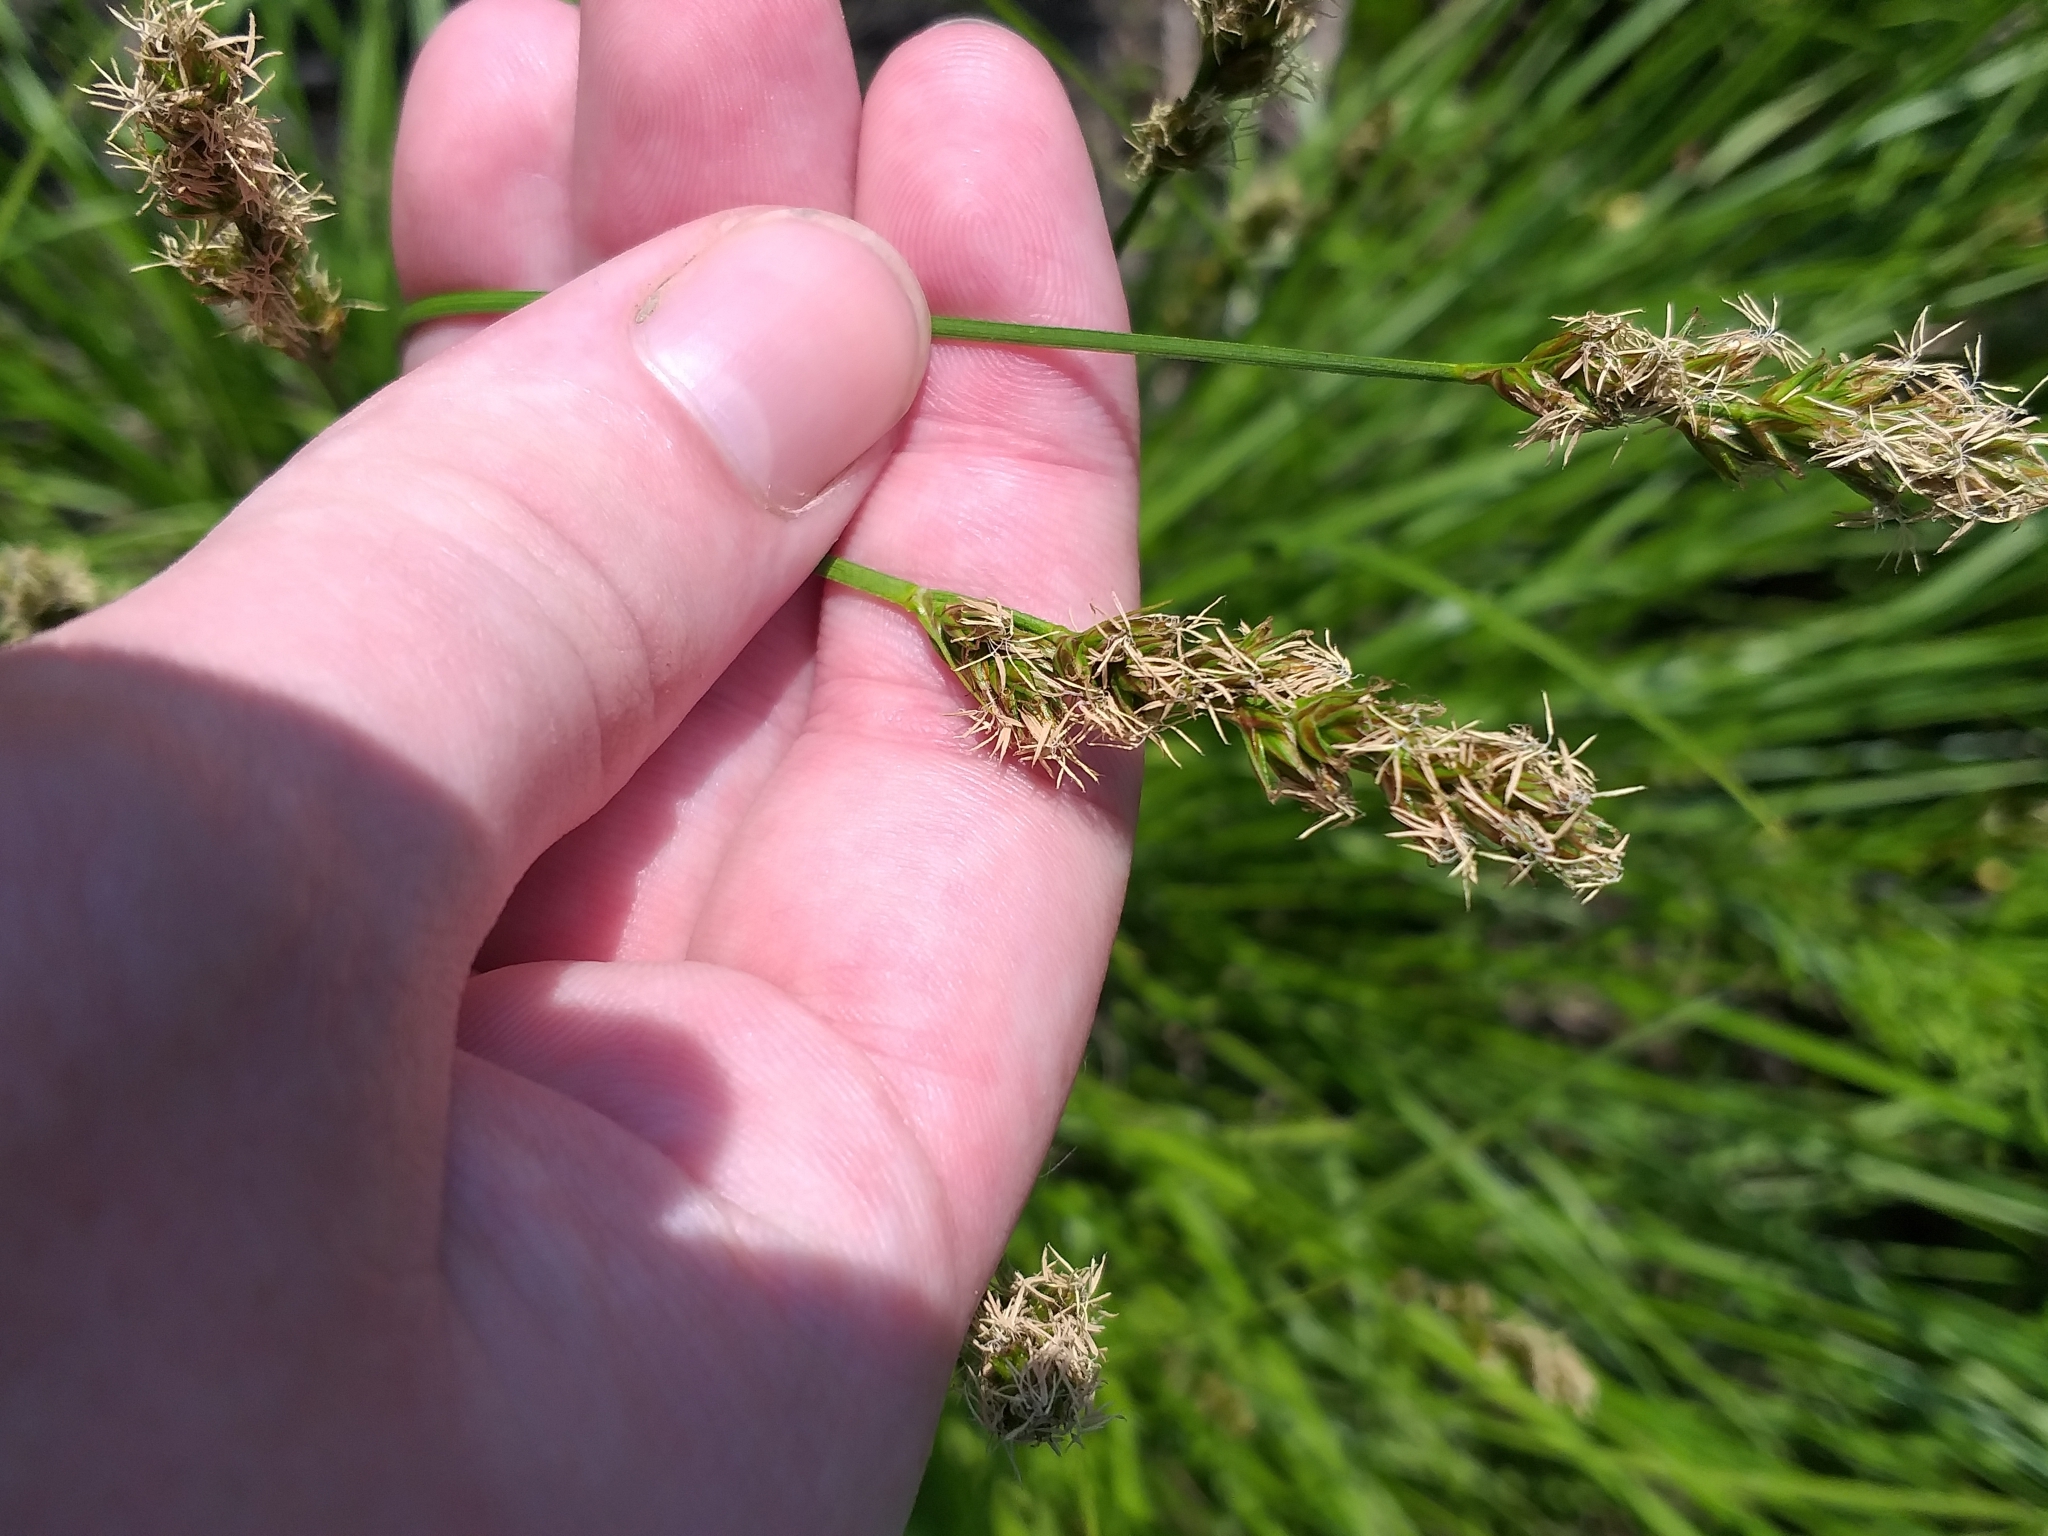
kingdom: Plantae
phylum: Tracheophyta
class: Liliopsida
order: Poales
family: Cyperaceae
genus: Carex
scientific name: Carex spicata
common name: Spiked sedge
